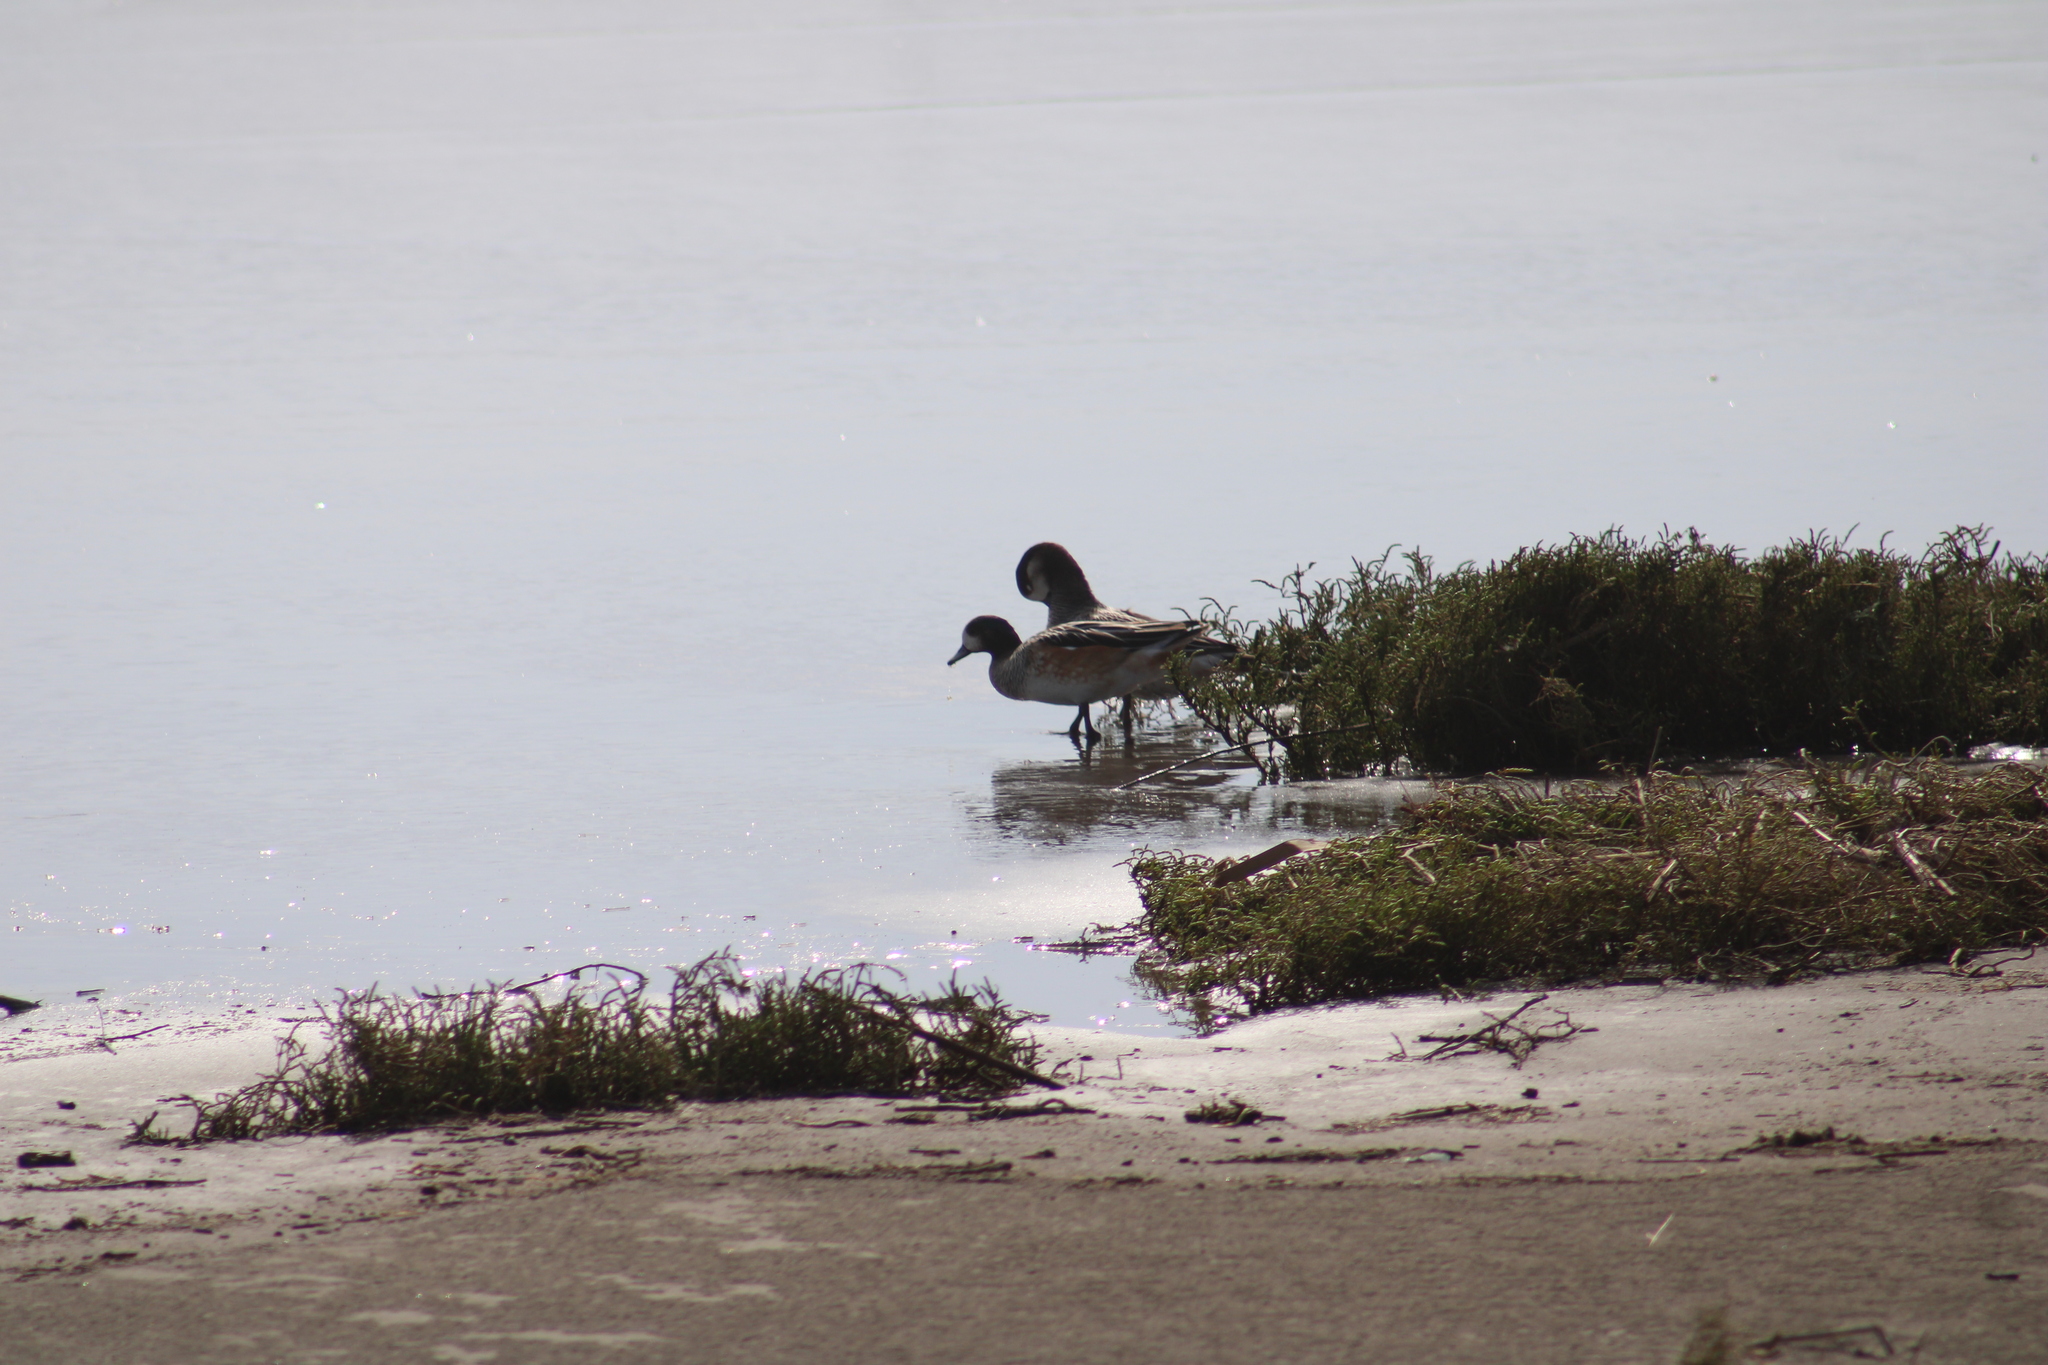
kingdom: Animalia
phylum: Chordata
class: Aves
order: Anseriformes
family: Anatidae
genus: Mareca
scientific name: Mareca sibilatrix
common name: Chiloe wigeon
